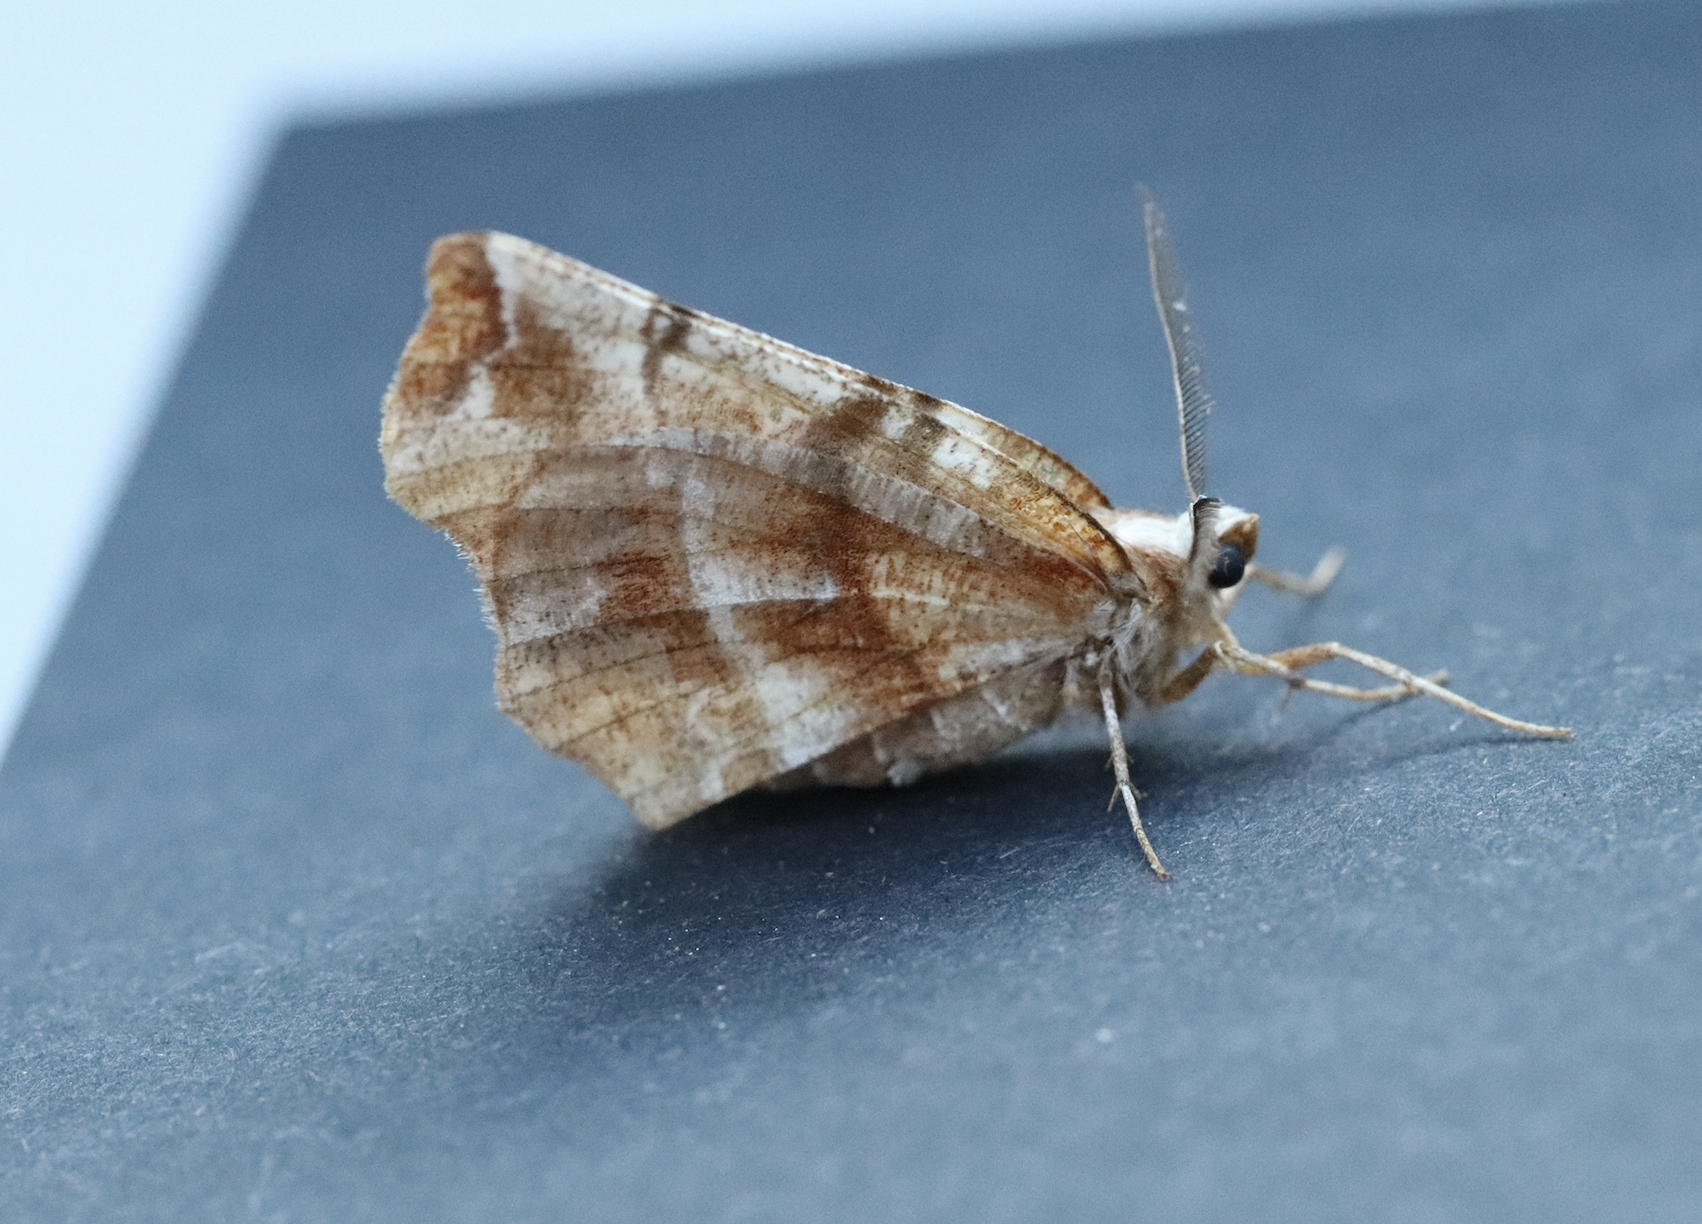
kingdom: Animalia
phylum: Arthropoda
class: Insecta
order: Lepidoptera
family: Geometridae
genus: Selenia
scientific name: Selenia dentaria
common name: Early thorn
